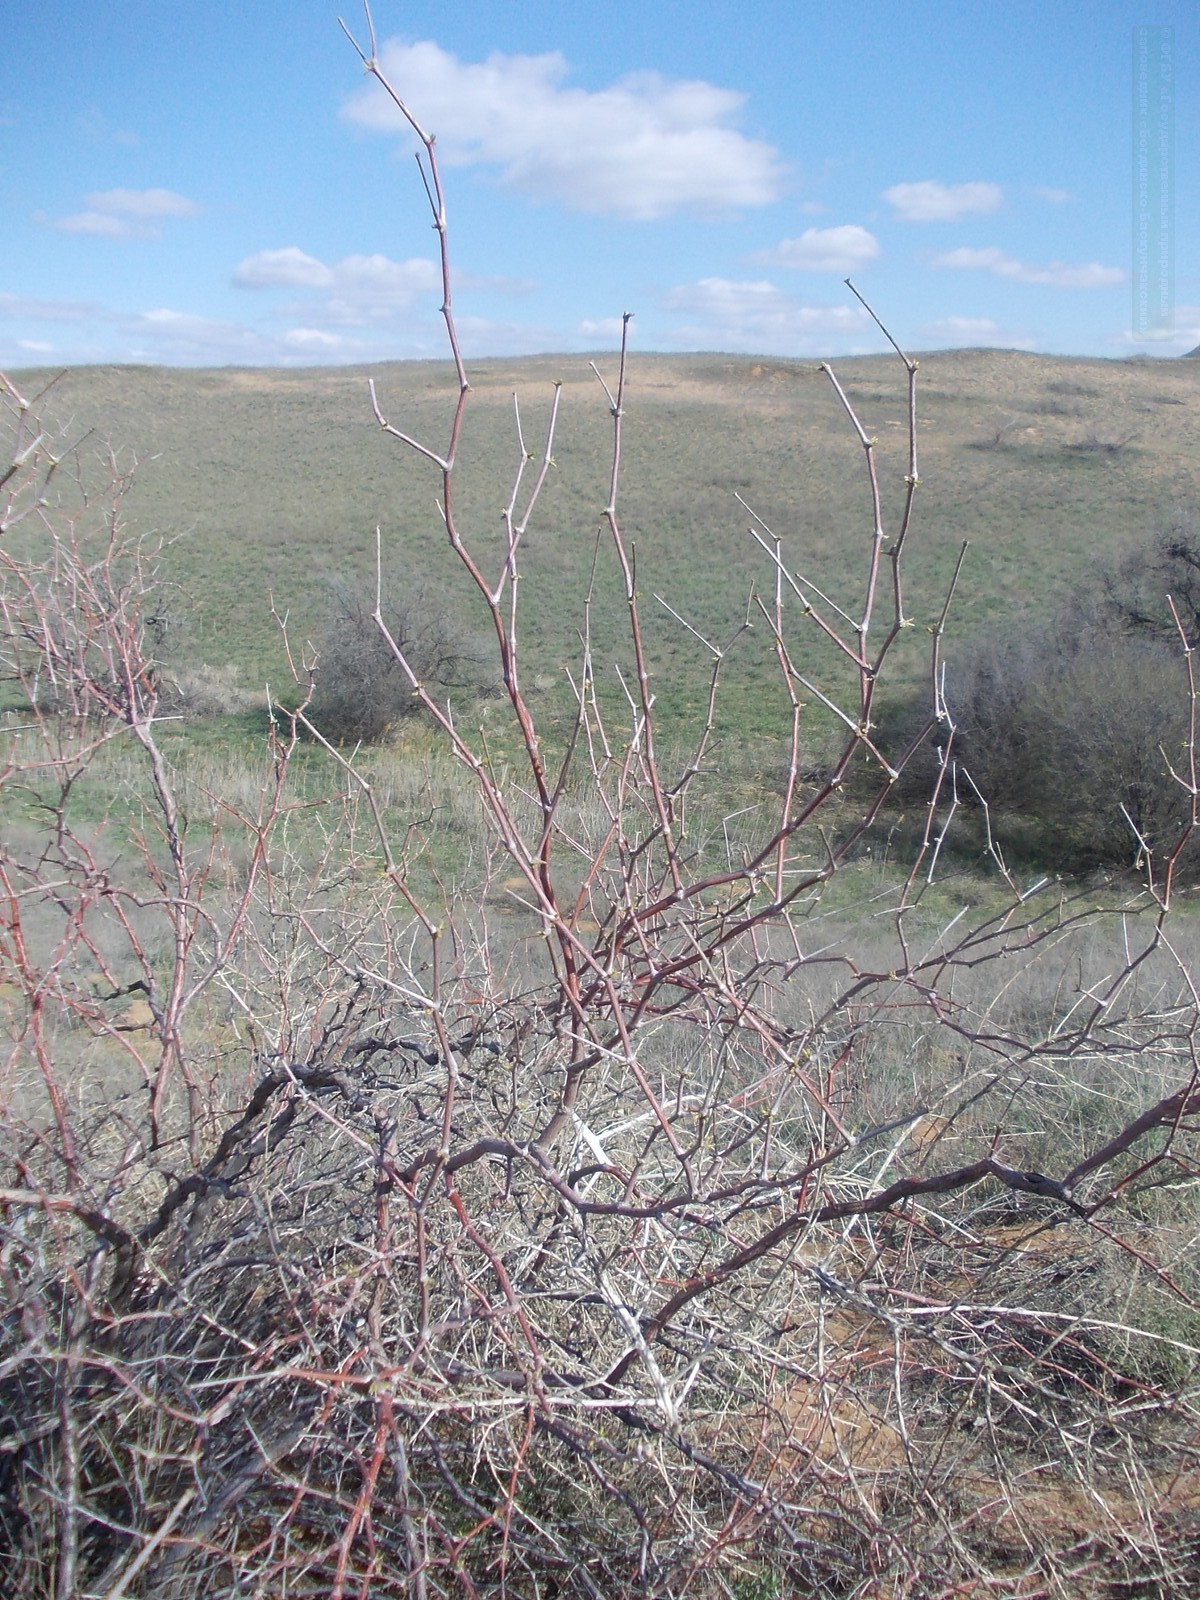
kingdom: Plantae
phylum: Tracheophyta
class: Magnoliopsida
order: Caryophyllales
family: Polygonaceae
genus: Calligonum
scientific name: Calligonum aphyllum
